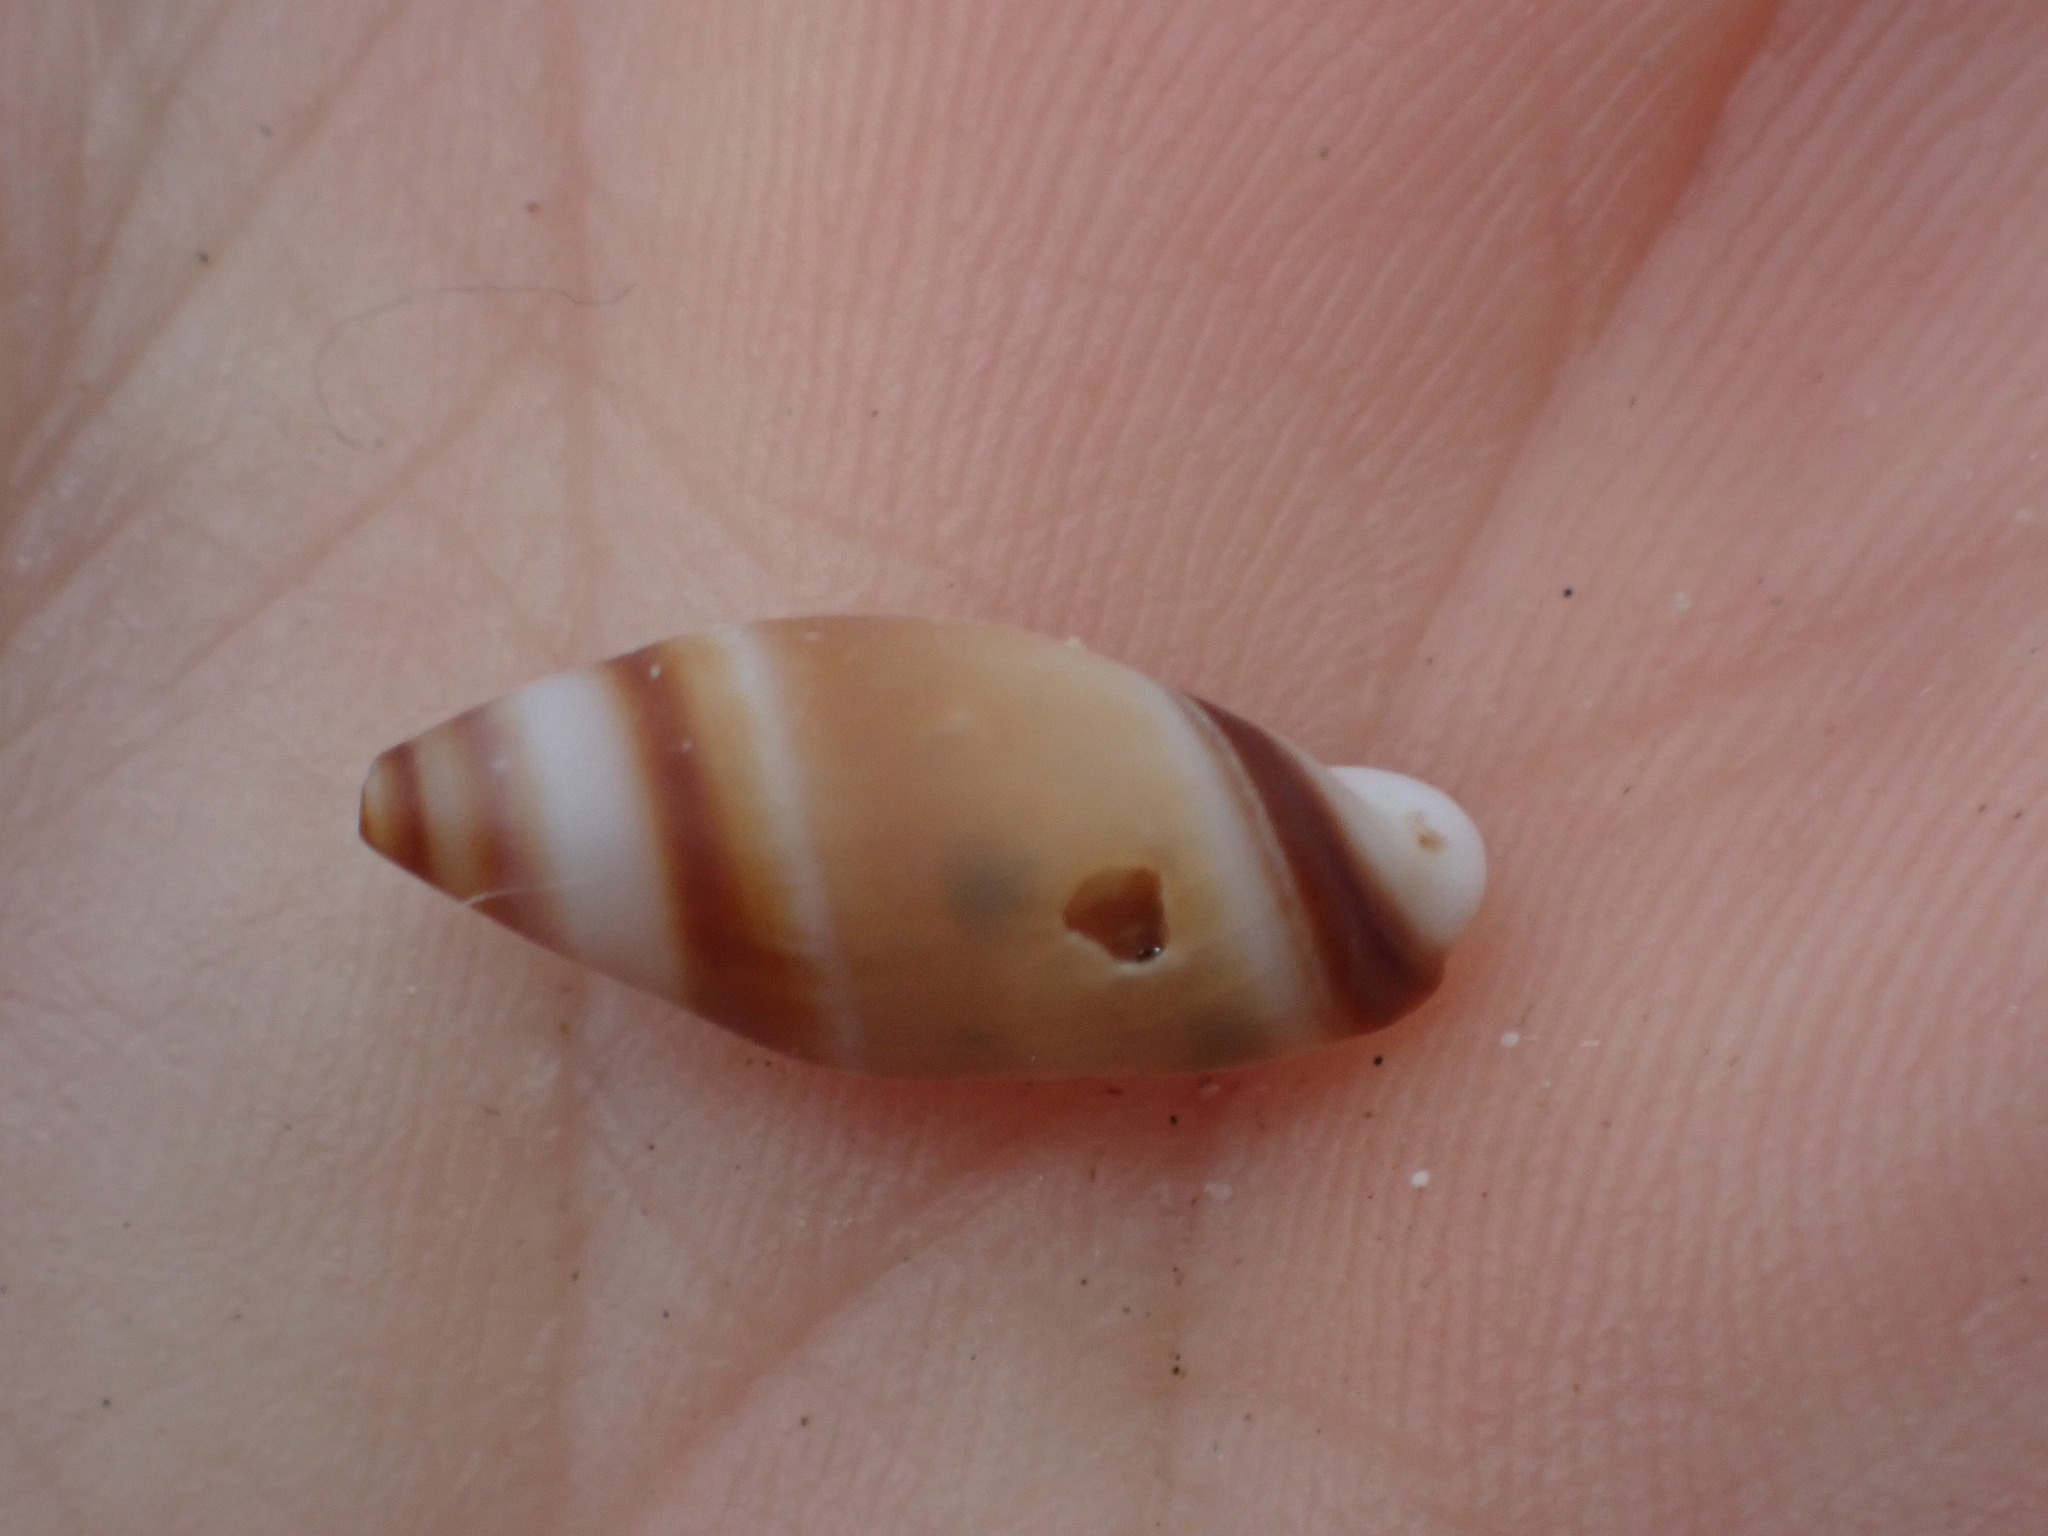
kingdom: Animalia
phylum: Mollusca
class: Gastropoda
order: Neogastropoda
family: Ancillariidae
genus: Amalda
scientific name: Amalda novaezelandiae
